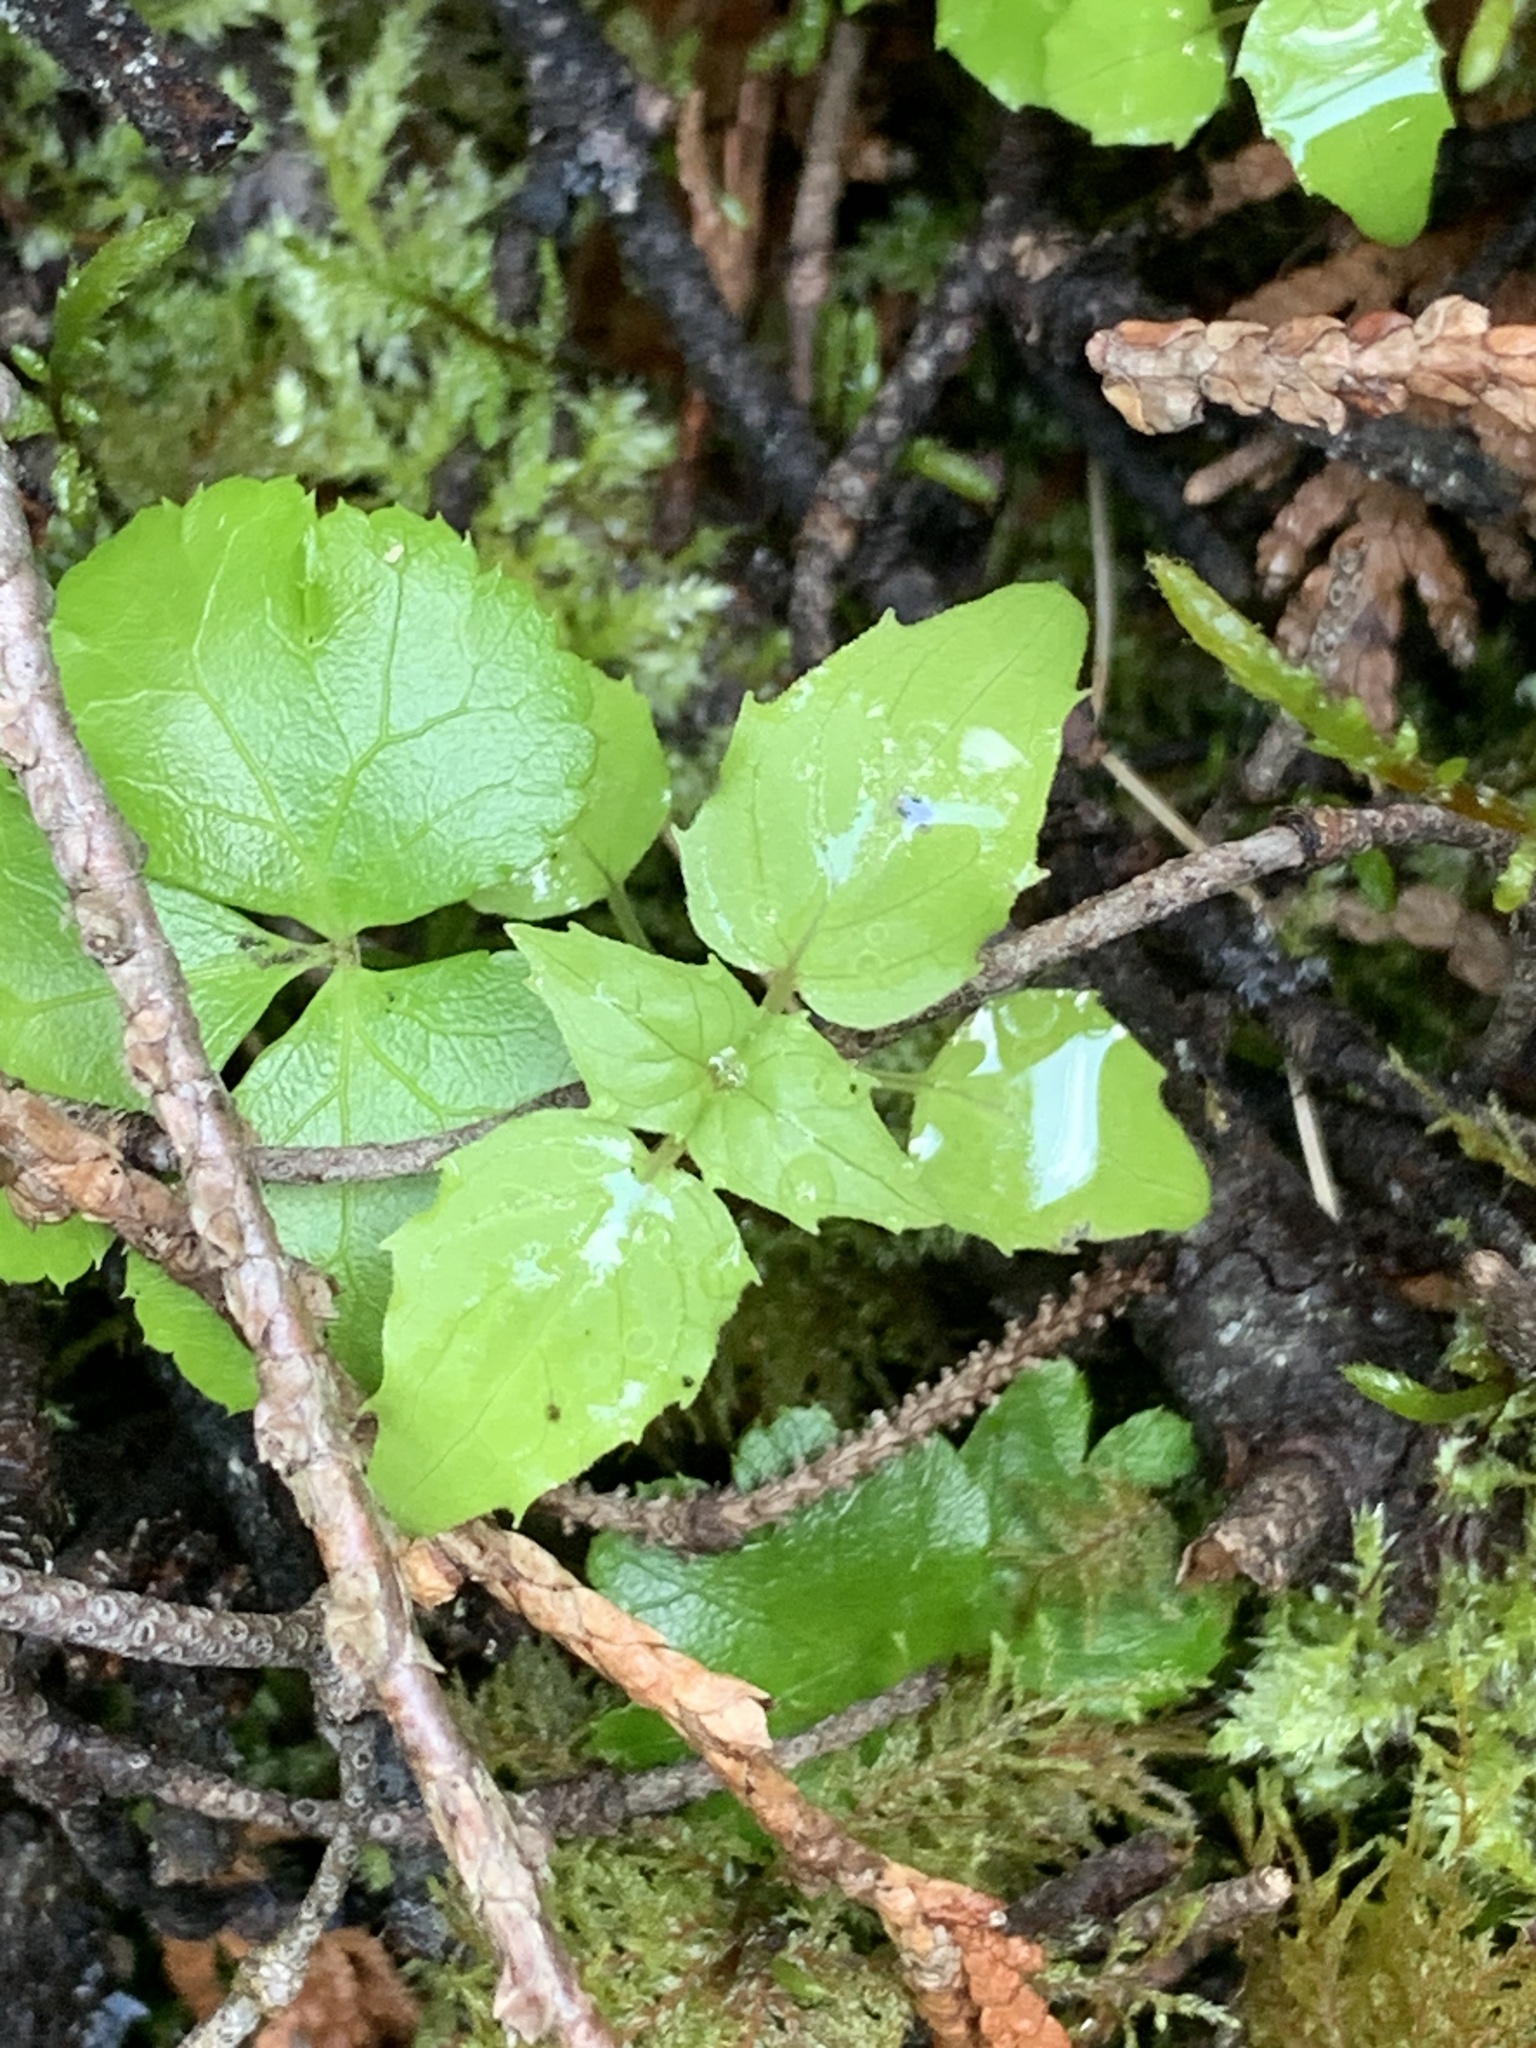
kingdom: Plantae
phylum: Tracheophyta
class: Magnoliopsida
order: Myrtales
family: Onagraceae
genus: Circaea
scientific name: Circaea alpina
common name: Alpine enchanter's-nightshade
